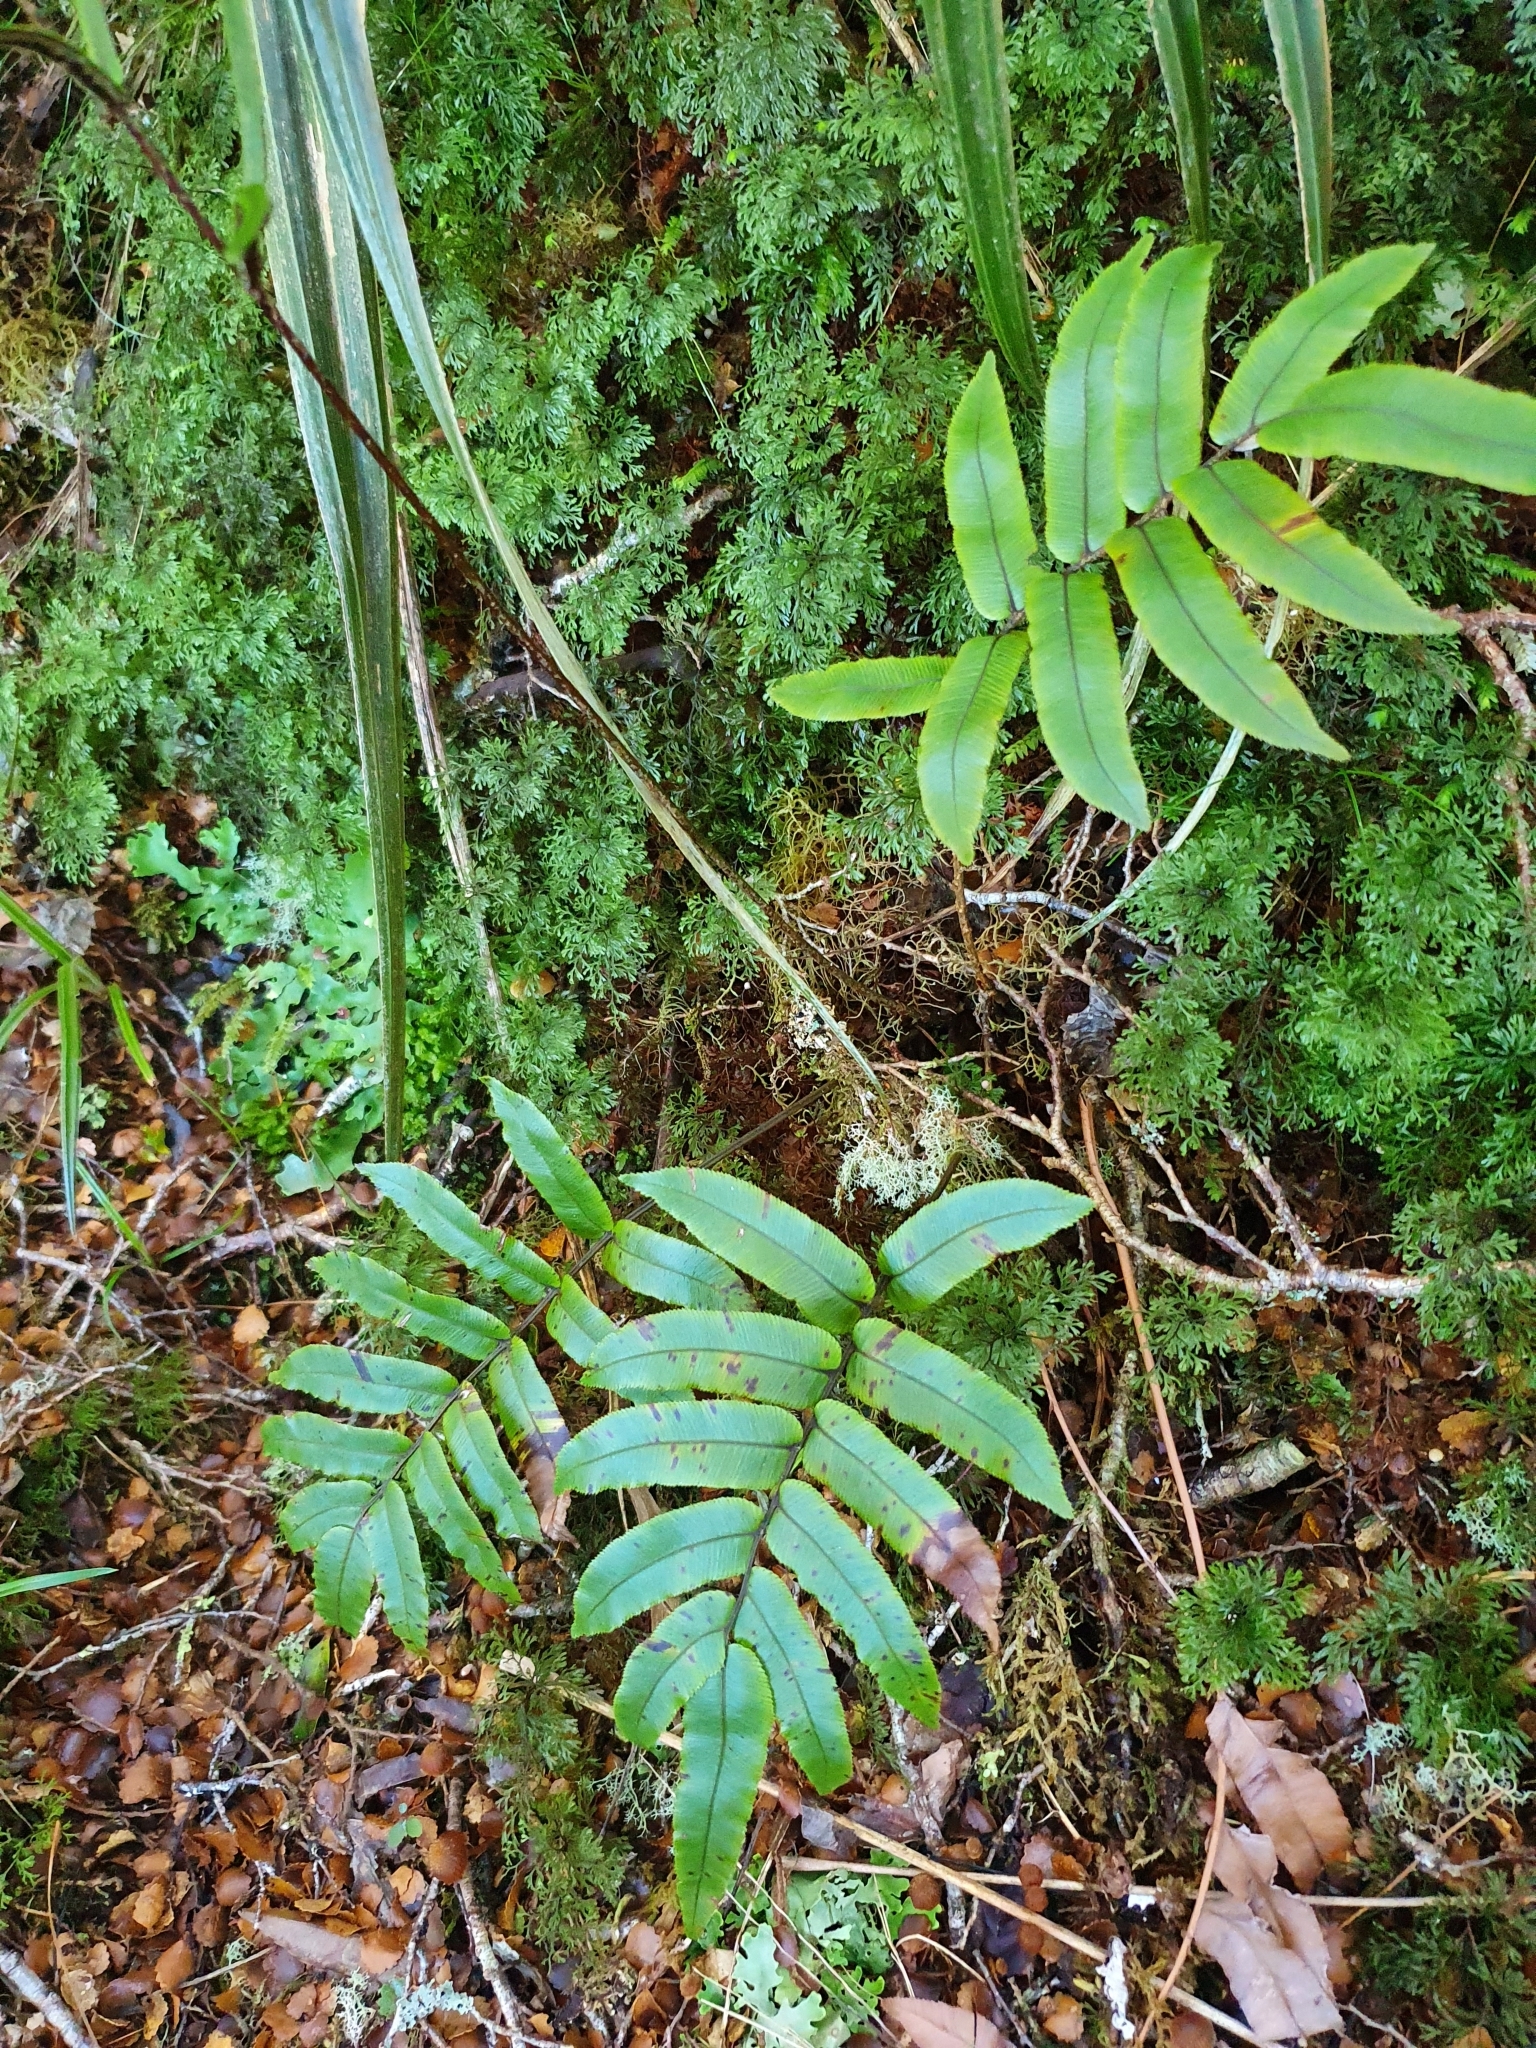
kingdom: Plantae
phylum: Tracheophyta
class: Polypodiopsida
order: Polypodiales
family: Blechnaceae
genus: Parablechnum
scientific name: Parablechnum procerum
